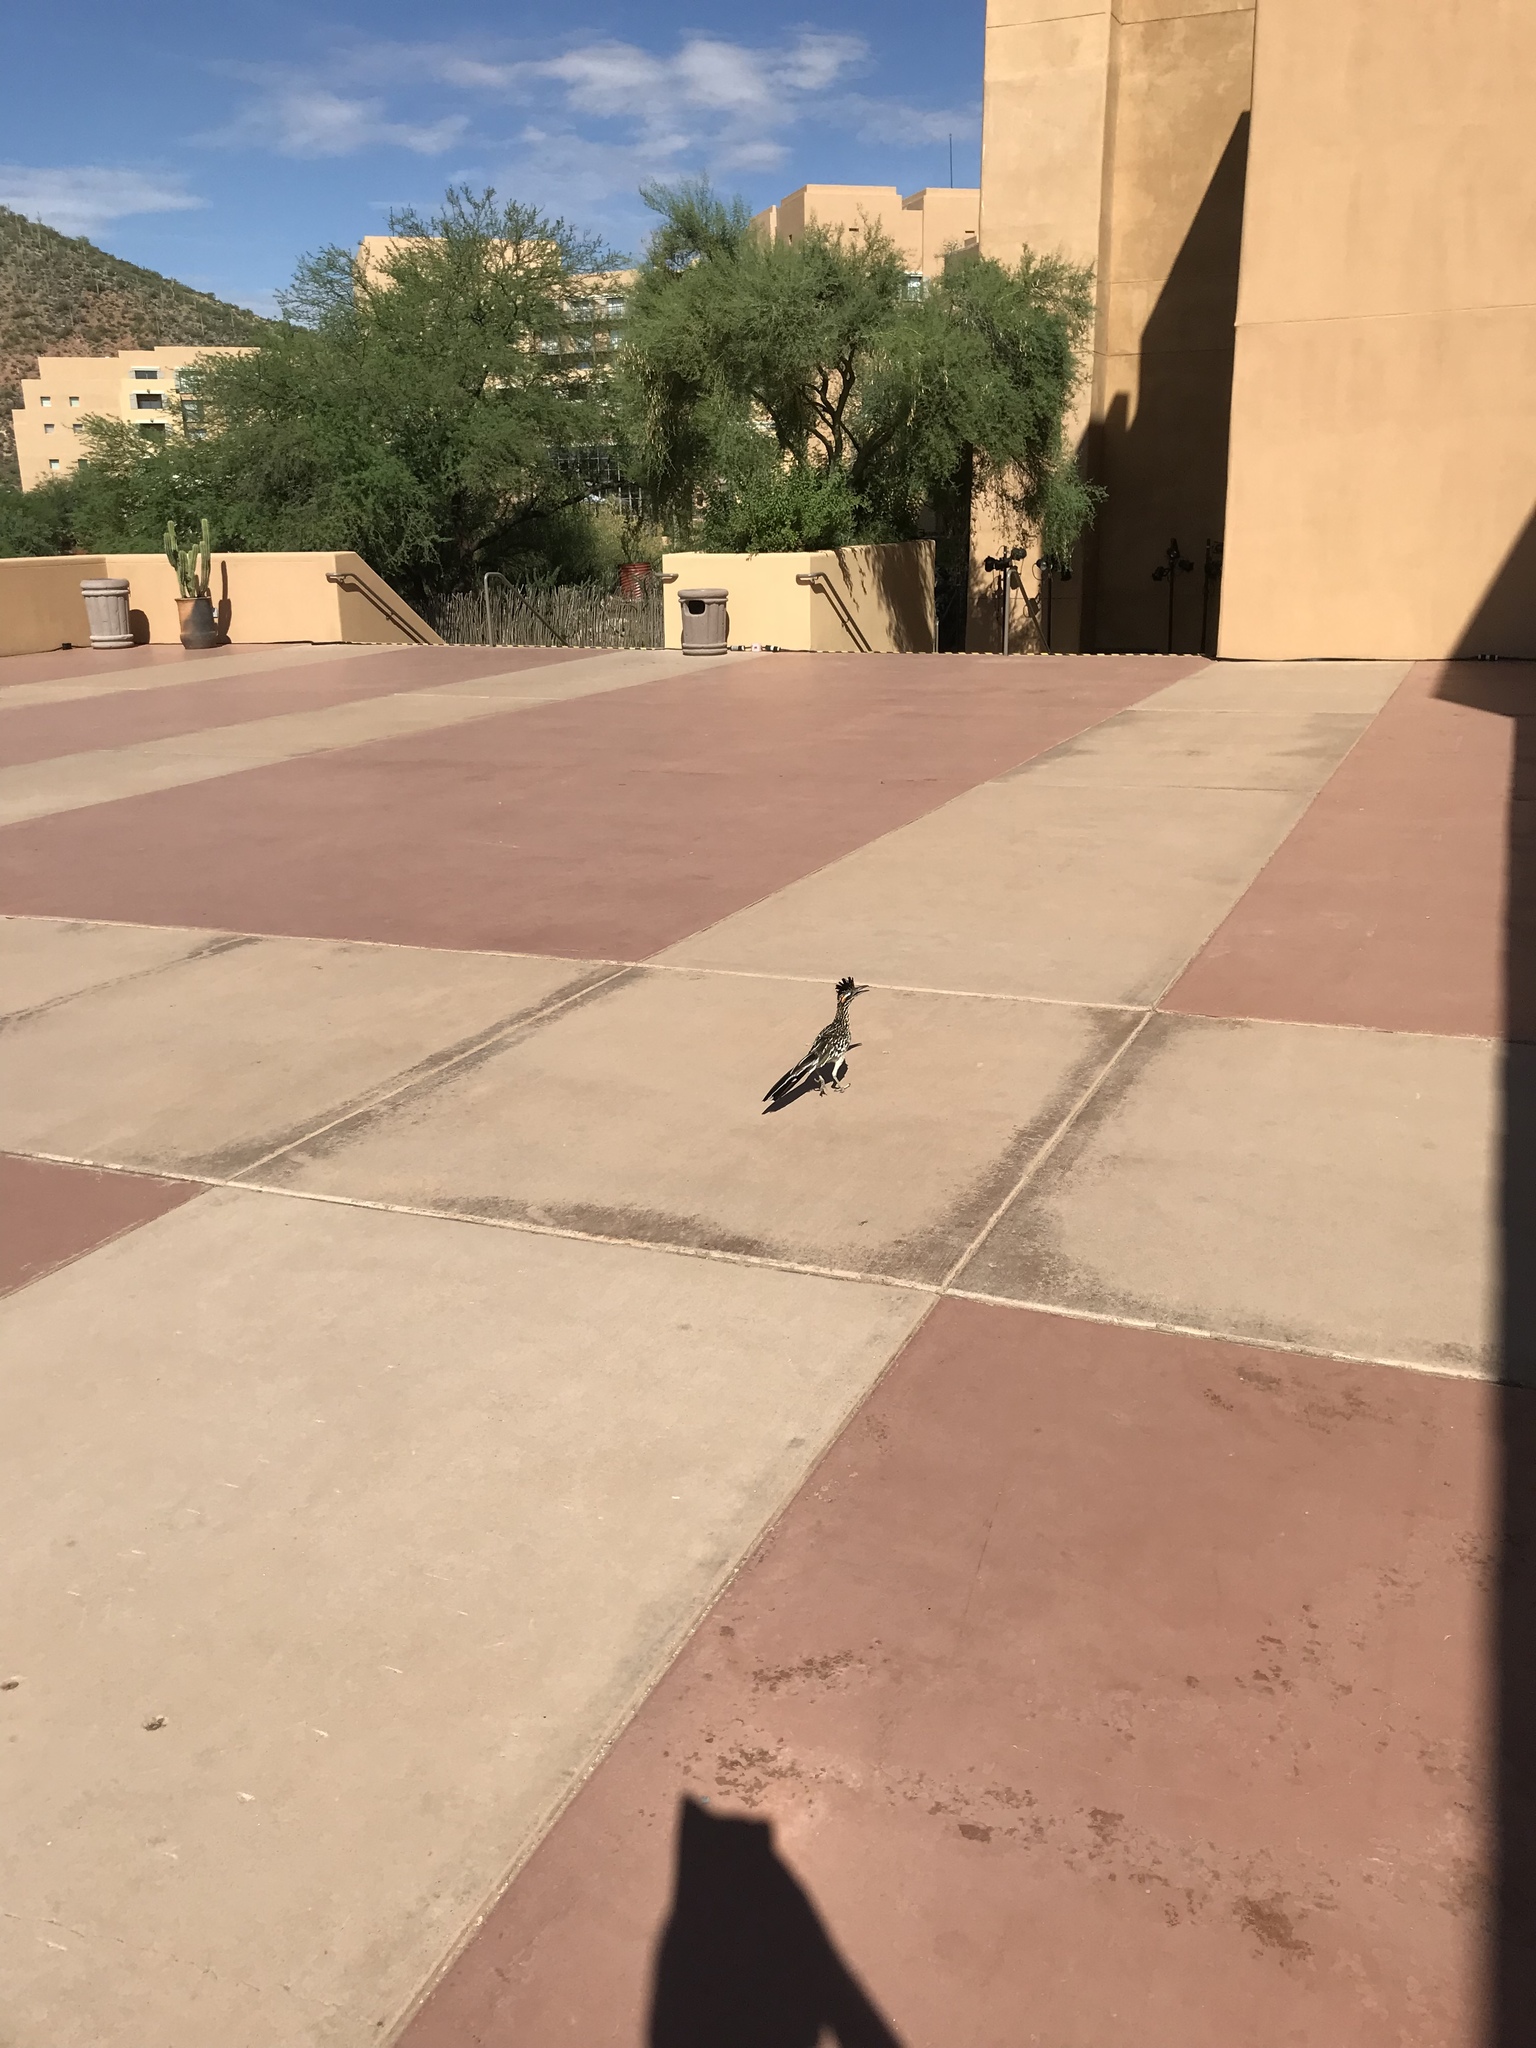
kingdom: Animalia
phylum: Chordata
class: Aves
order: Cuculiformes
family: Cuculidae
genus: Geococcyx
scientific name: Geococcyx californianus
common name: Greater roadrunner
